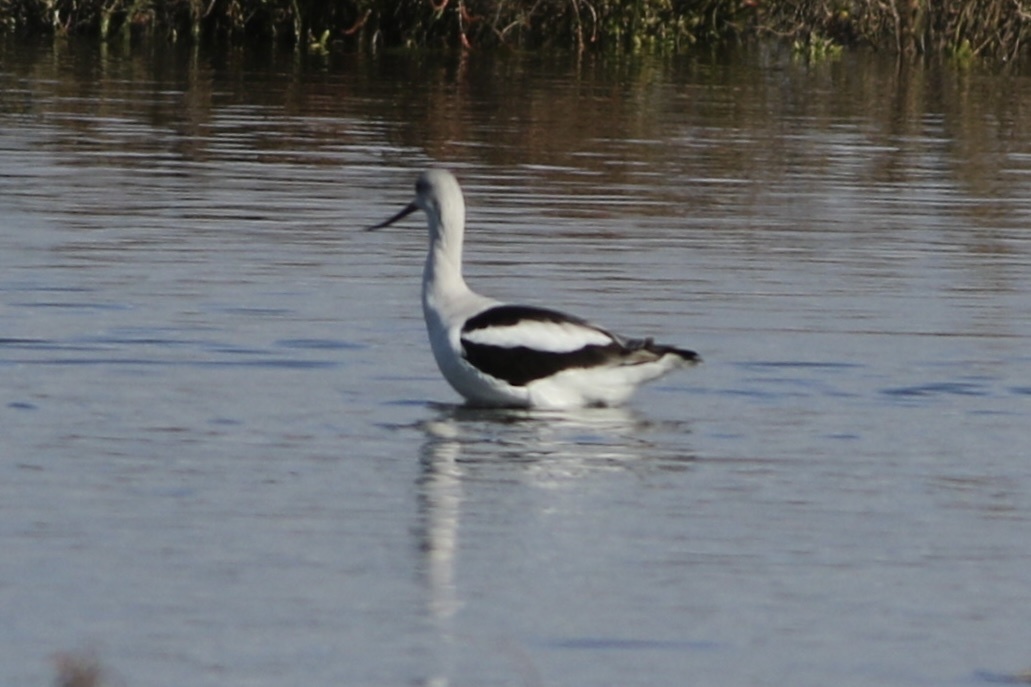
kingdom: Animalia
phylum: Chordata
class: Aves
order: Charadriiformes
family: Recurvirostridae
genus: Recurvirostra
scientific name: Recurvirostra americana
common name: American avocet
